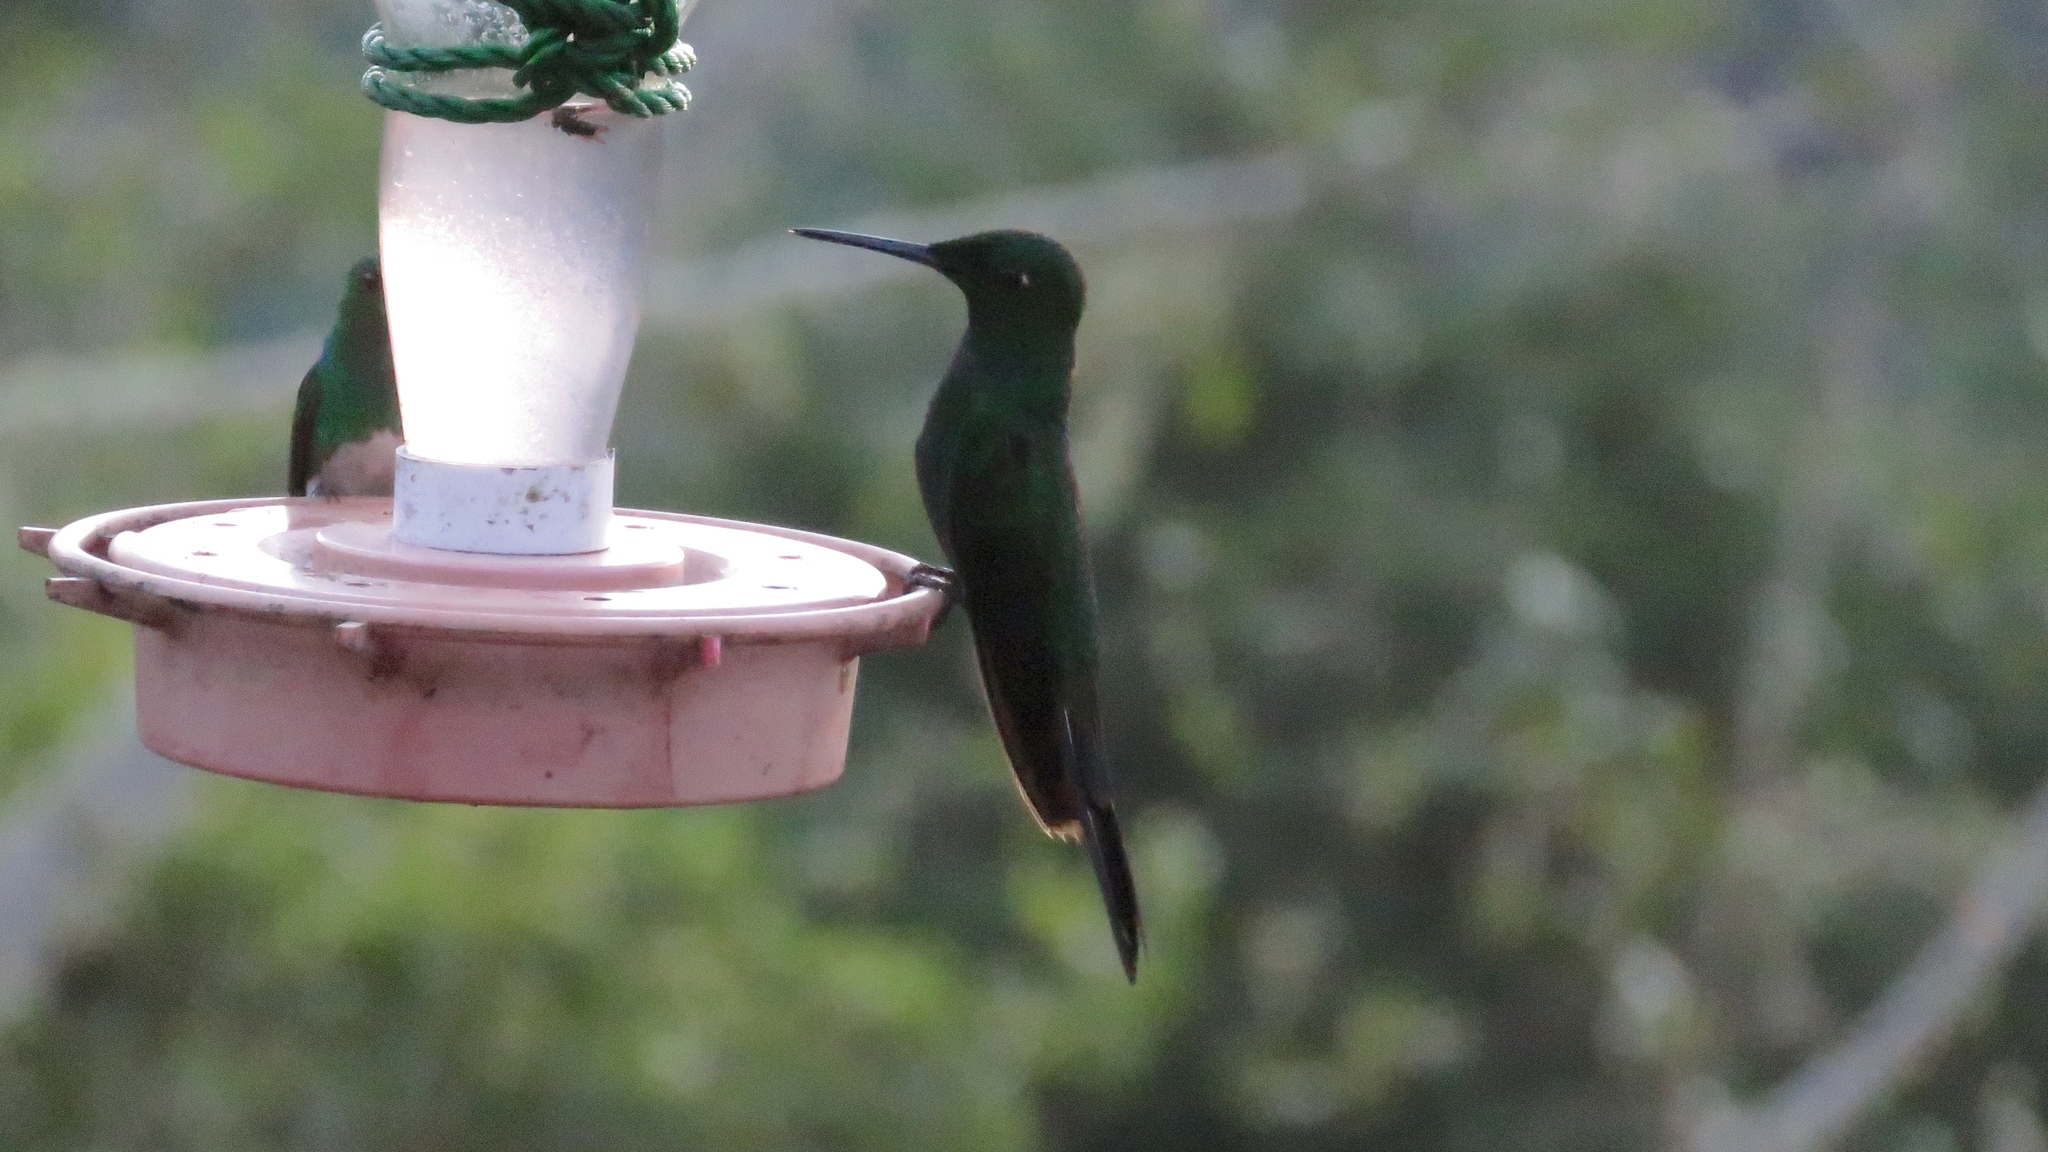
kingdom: Animalia
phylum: Chordata
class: Aves
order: Apodiformes
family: Trochilidae
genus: Heliodoxa
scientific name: Heliodoxa jacula
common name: Green-crowned brilliant
